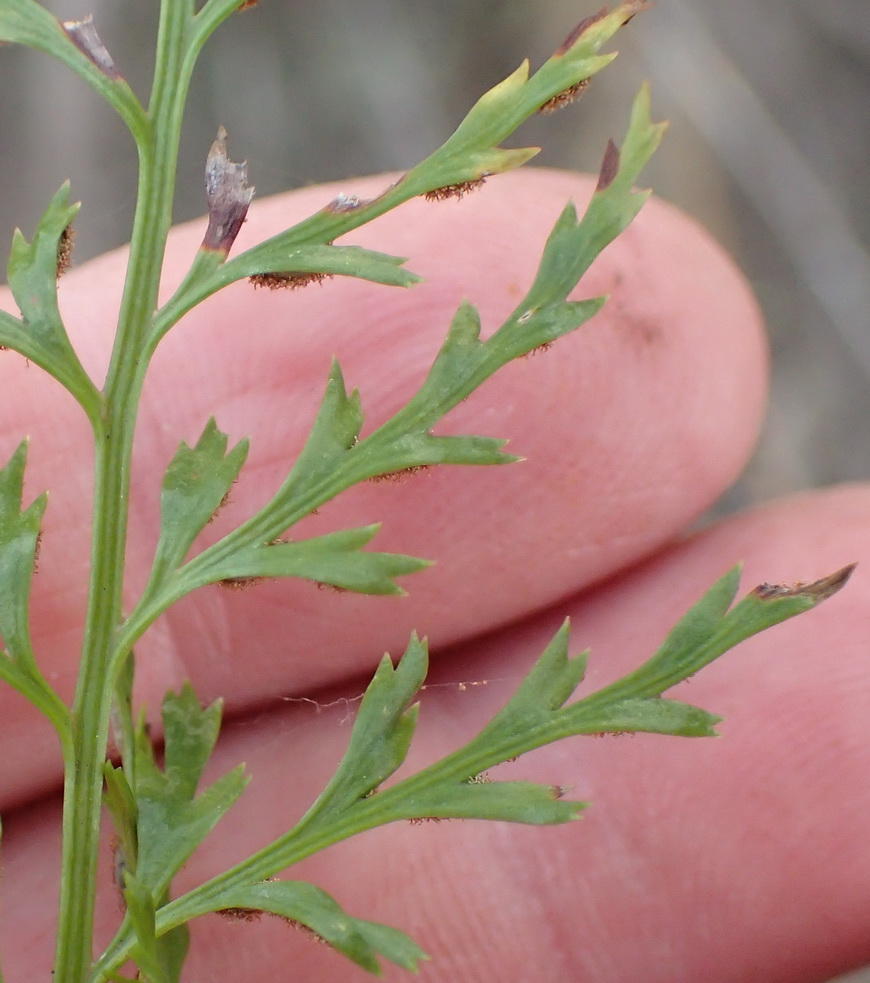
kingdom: Plantae
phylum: Tracheophyta
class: Polypodiopsida
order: Polypodiales
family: Aspleniaceae
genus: Asplenium
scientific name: Asplenium adiantum-nigrum
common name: Black spleenwort
